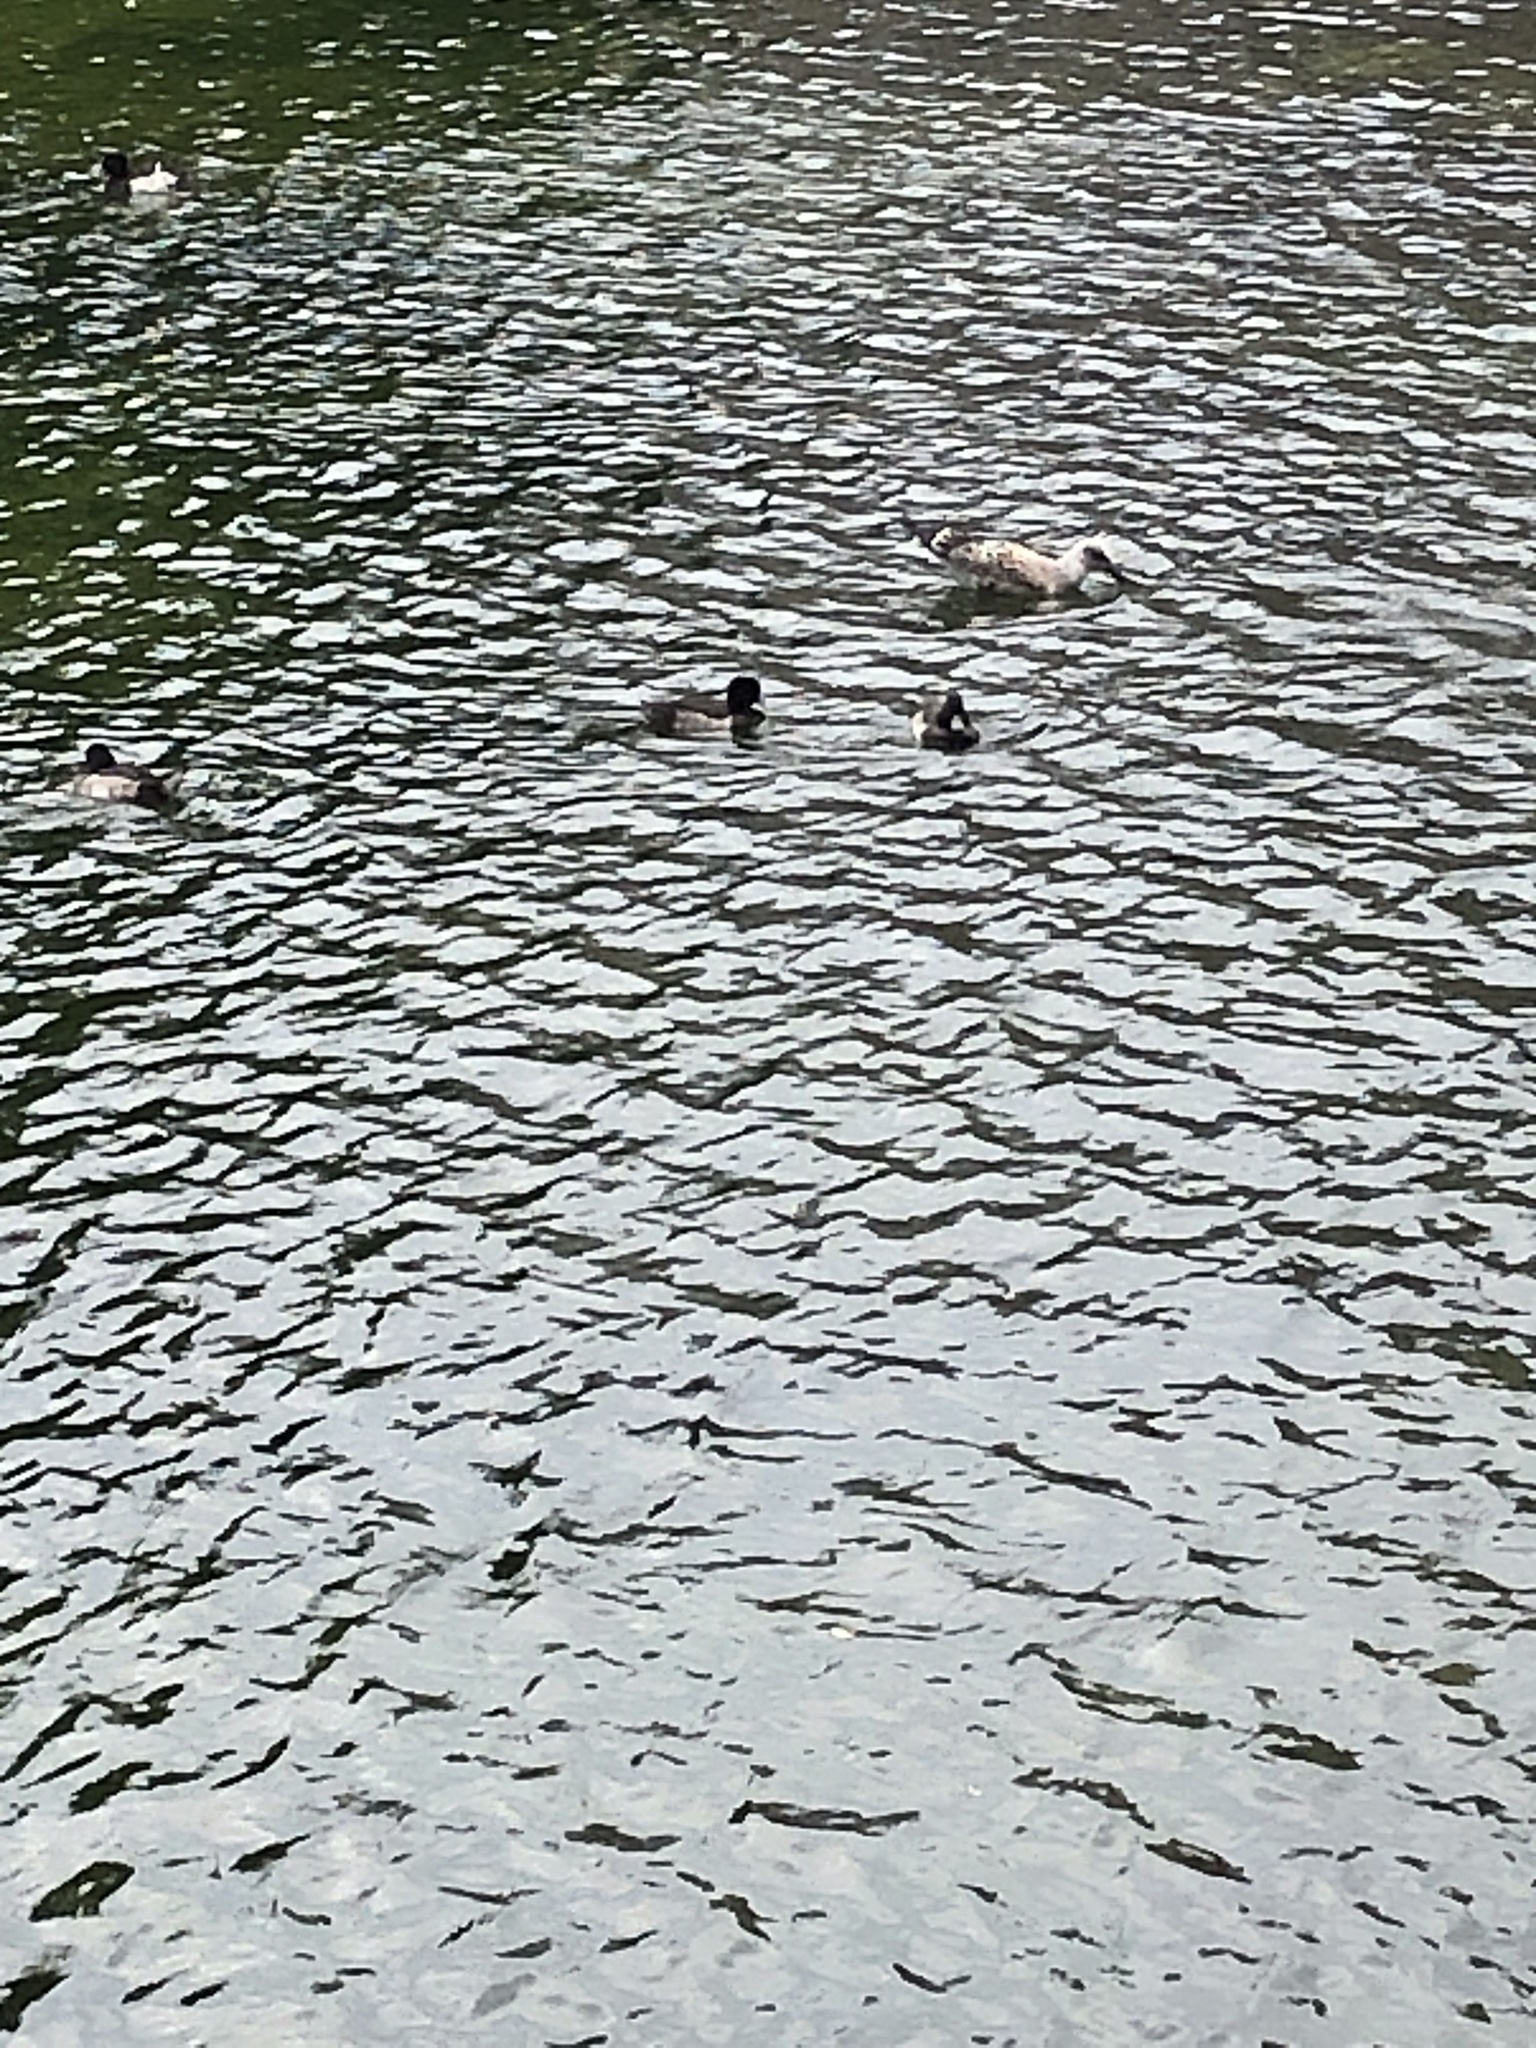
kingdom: Animalia
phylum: Chordata
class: Aves
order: Anseriformes
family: Anatidae
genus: Aythya
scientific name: Aythya fuligula
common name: Tufted duck
